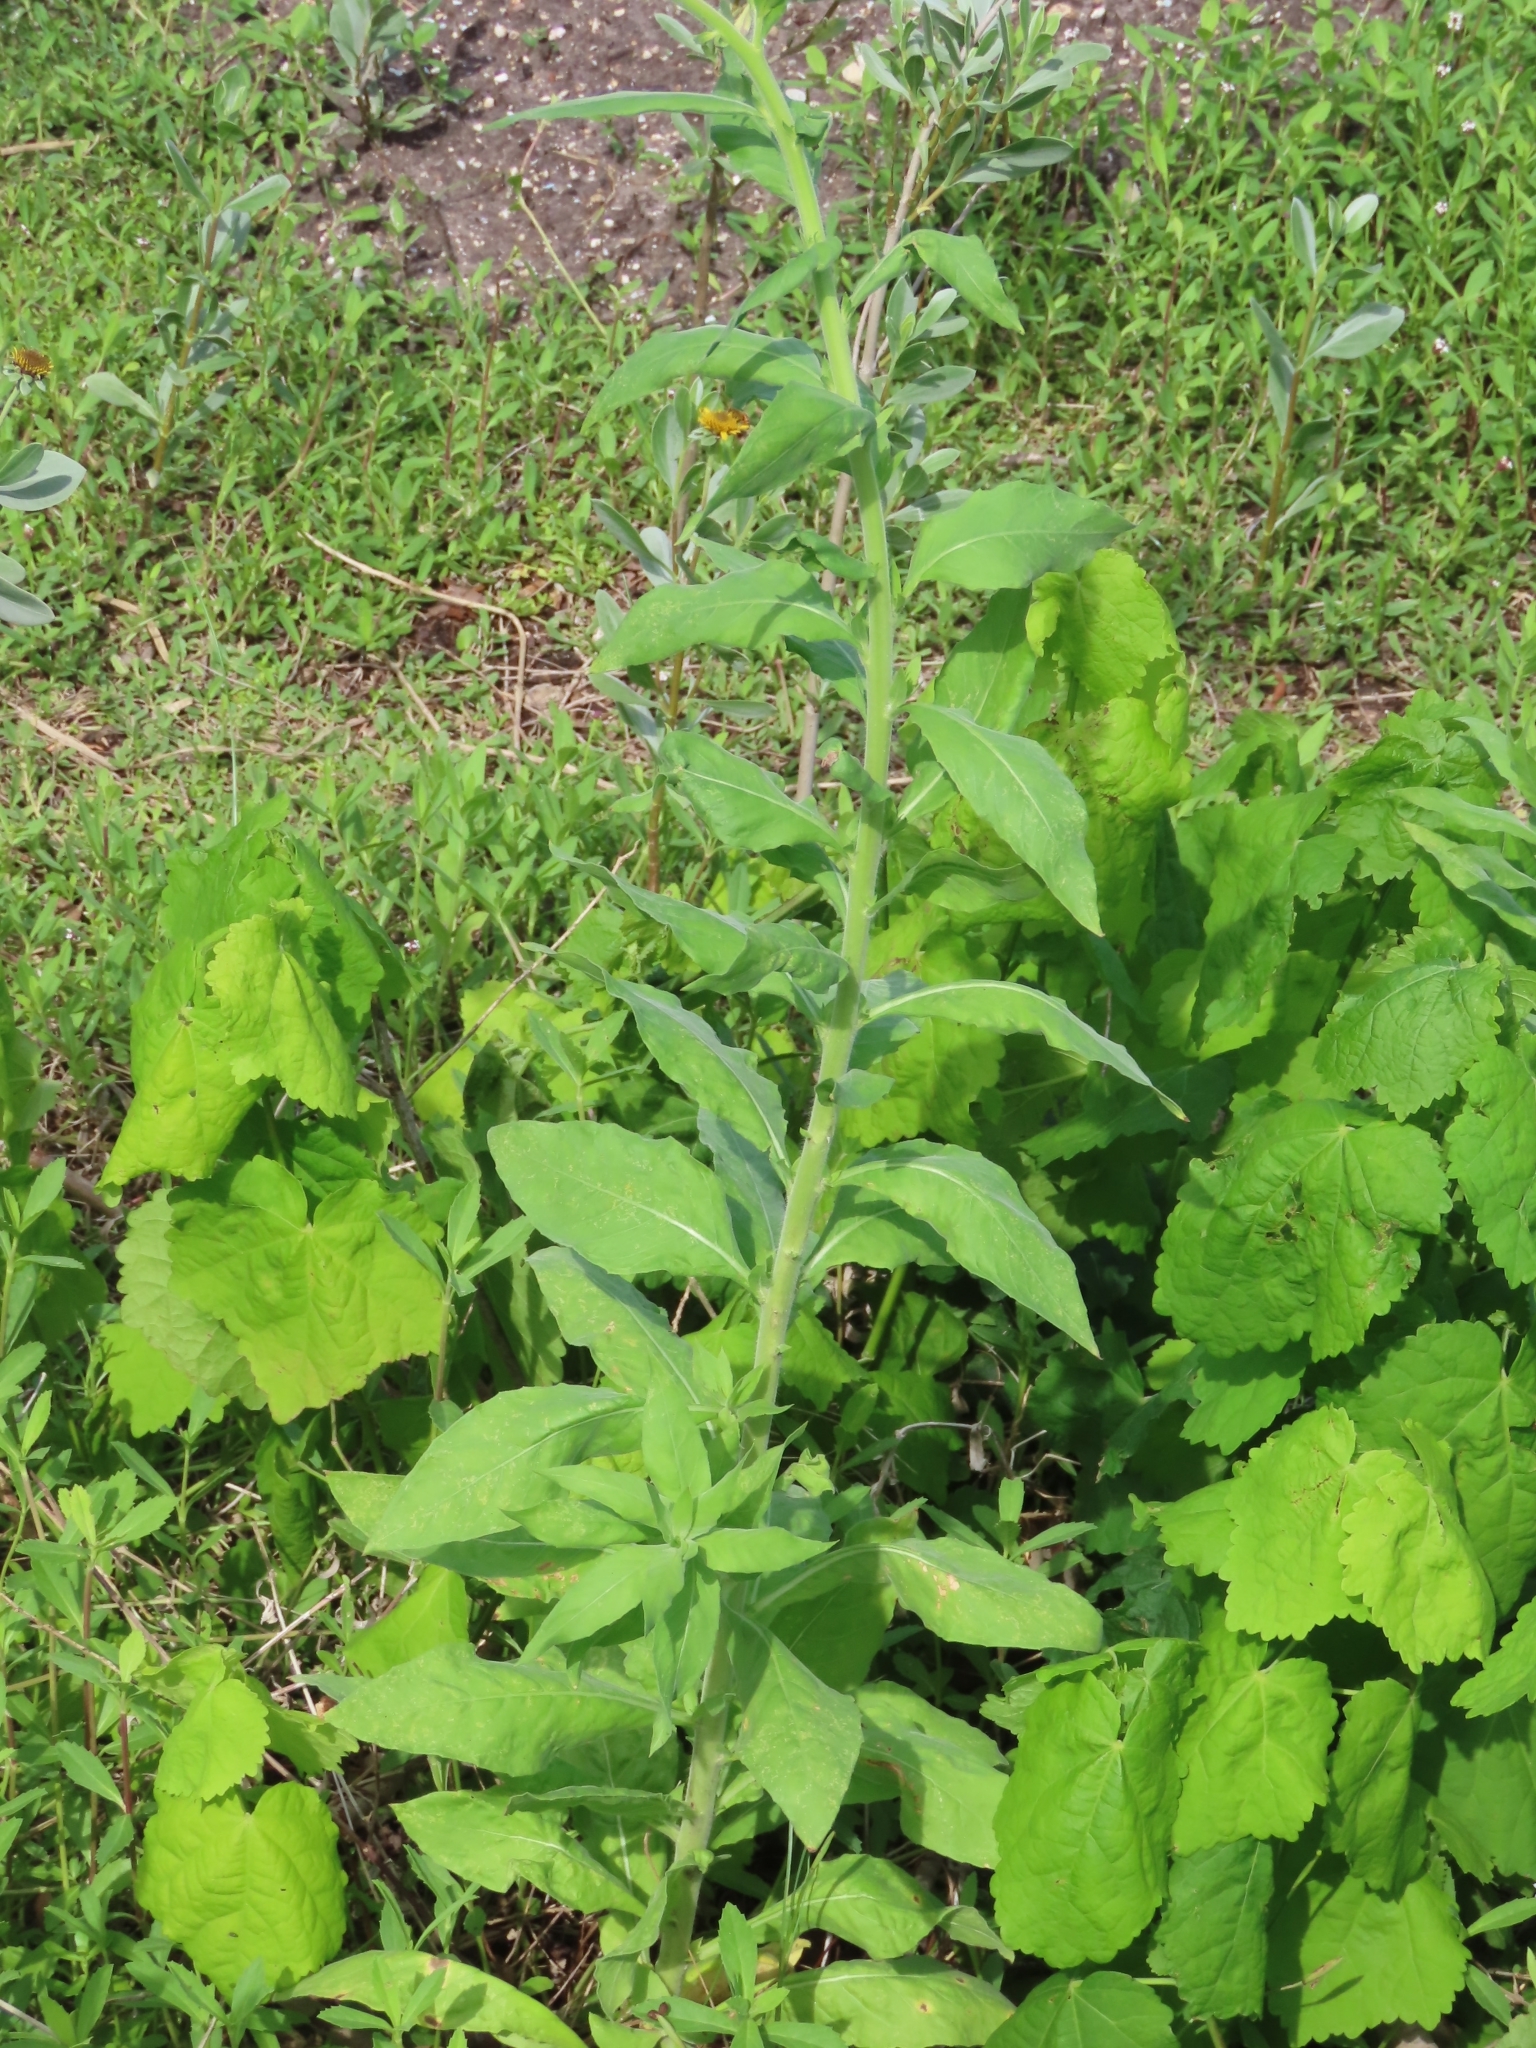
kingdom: Plantae
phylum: Tracheophyta
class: Magnoliopsida
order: Myrtales
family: Onagraceae
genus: Oenothera
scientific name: Oenothera curtiflora
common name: Velvetweed
